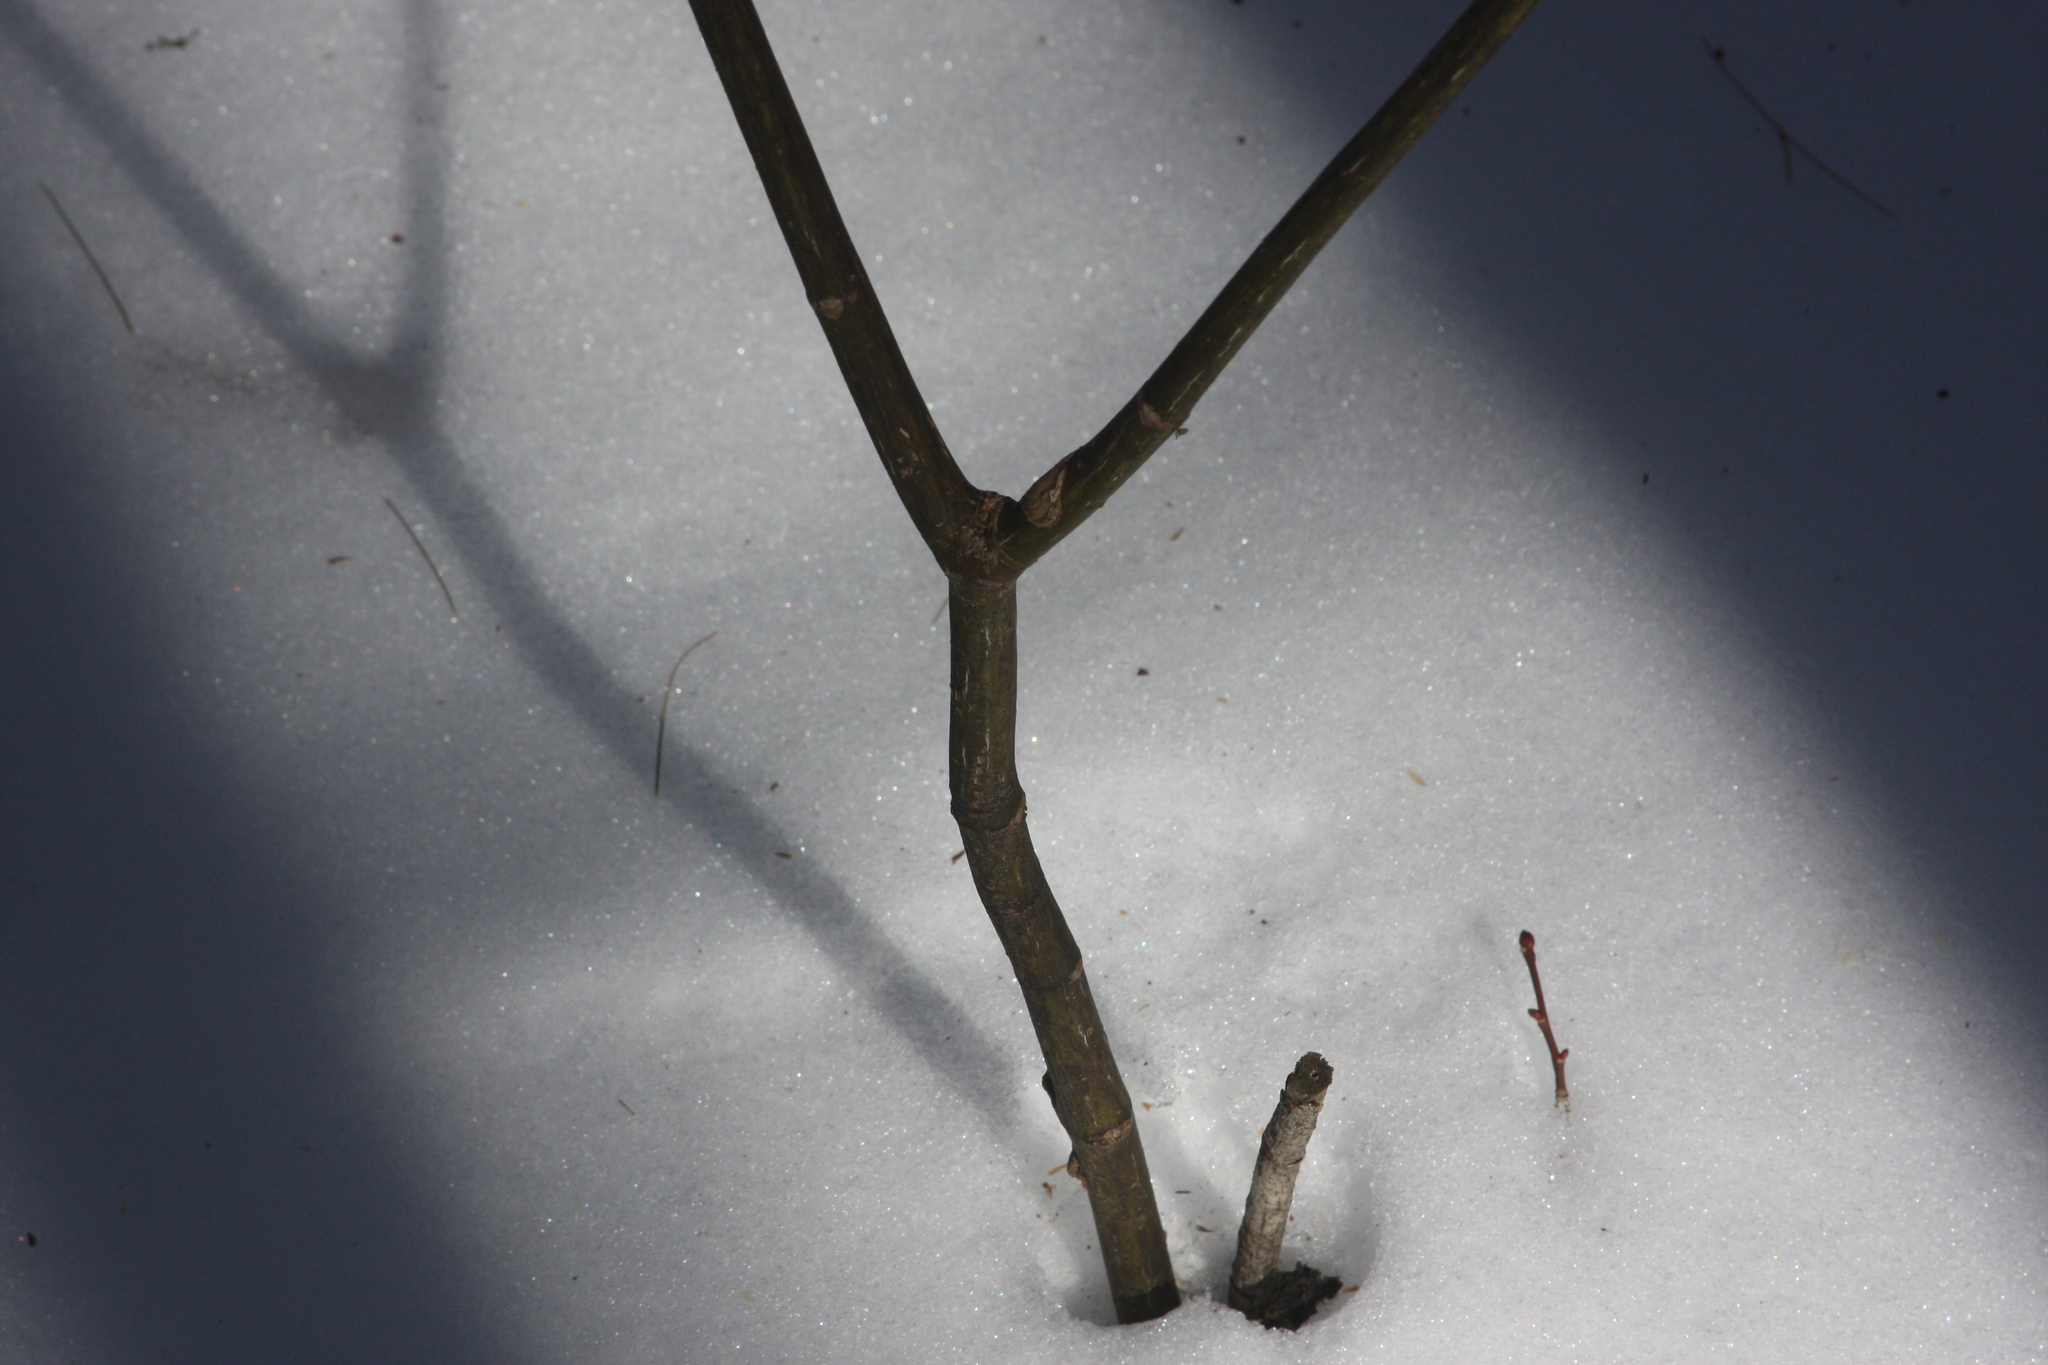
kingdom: Plantae
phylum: Tracheophyta
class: Magnoliopsida
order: Sapindales
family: Sapindaceae
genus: Acer
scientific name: Acer pensylvanicum
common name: Moosewood
